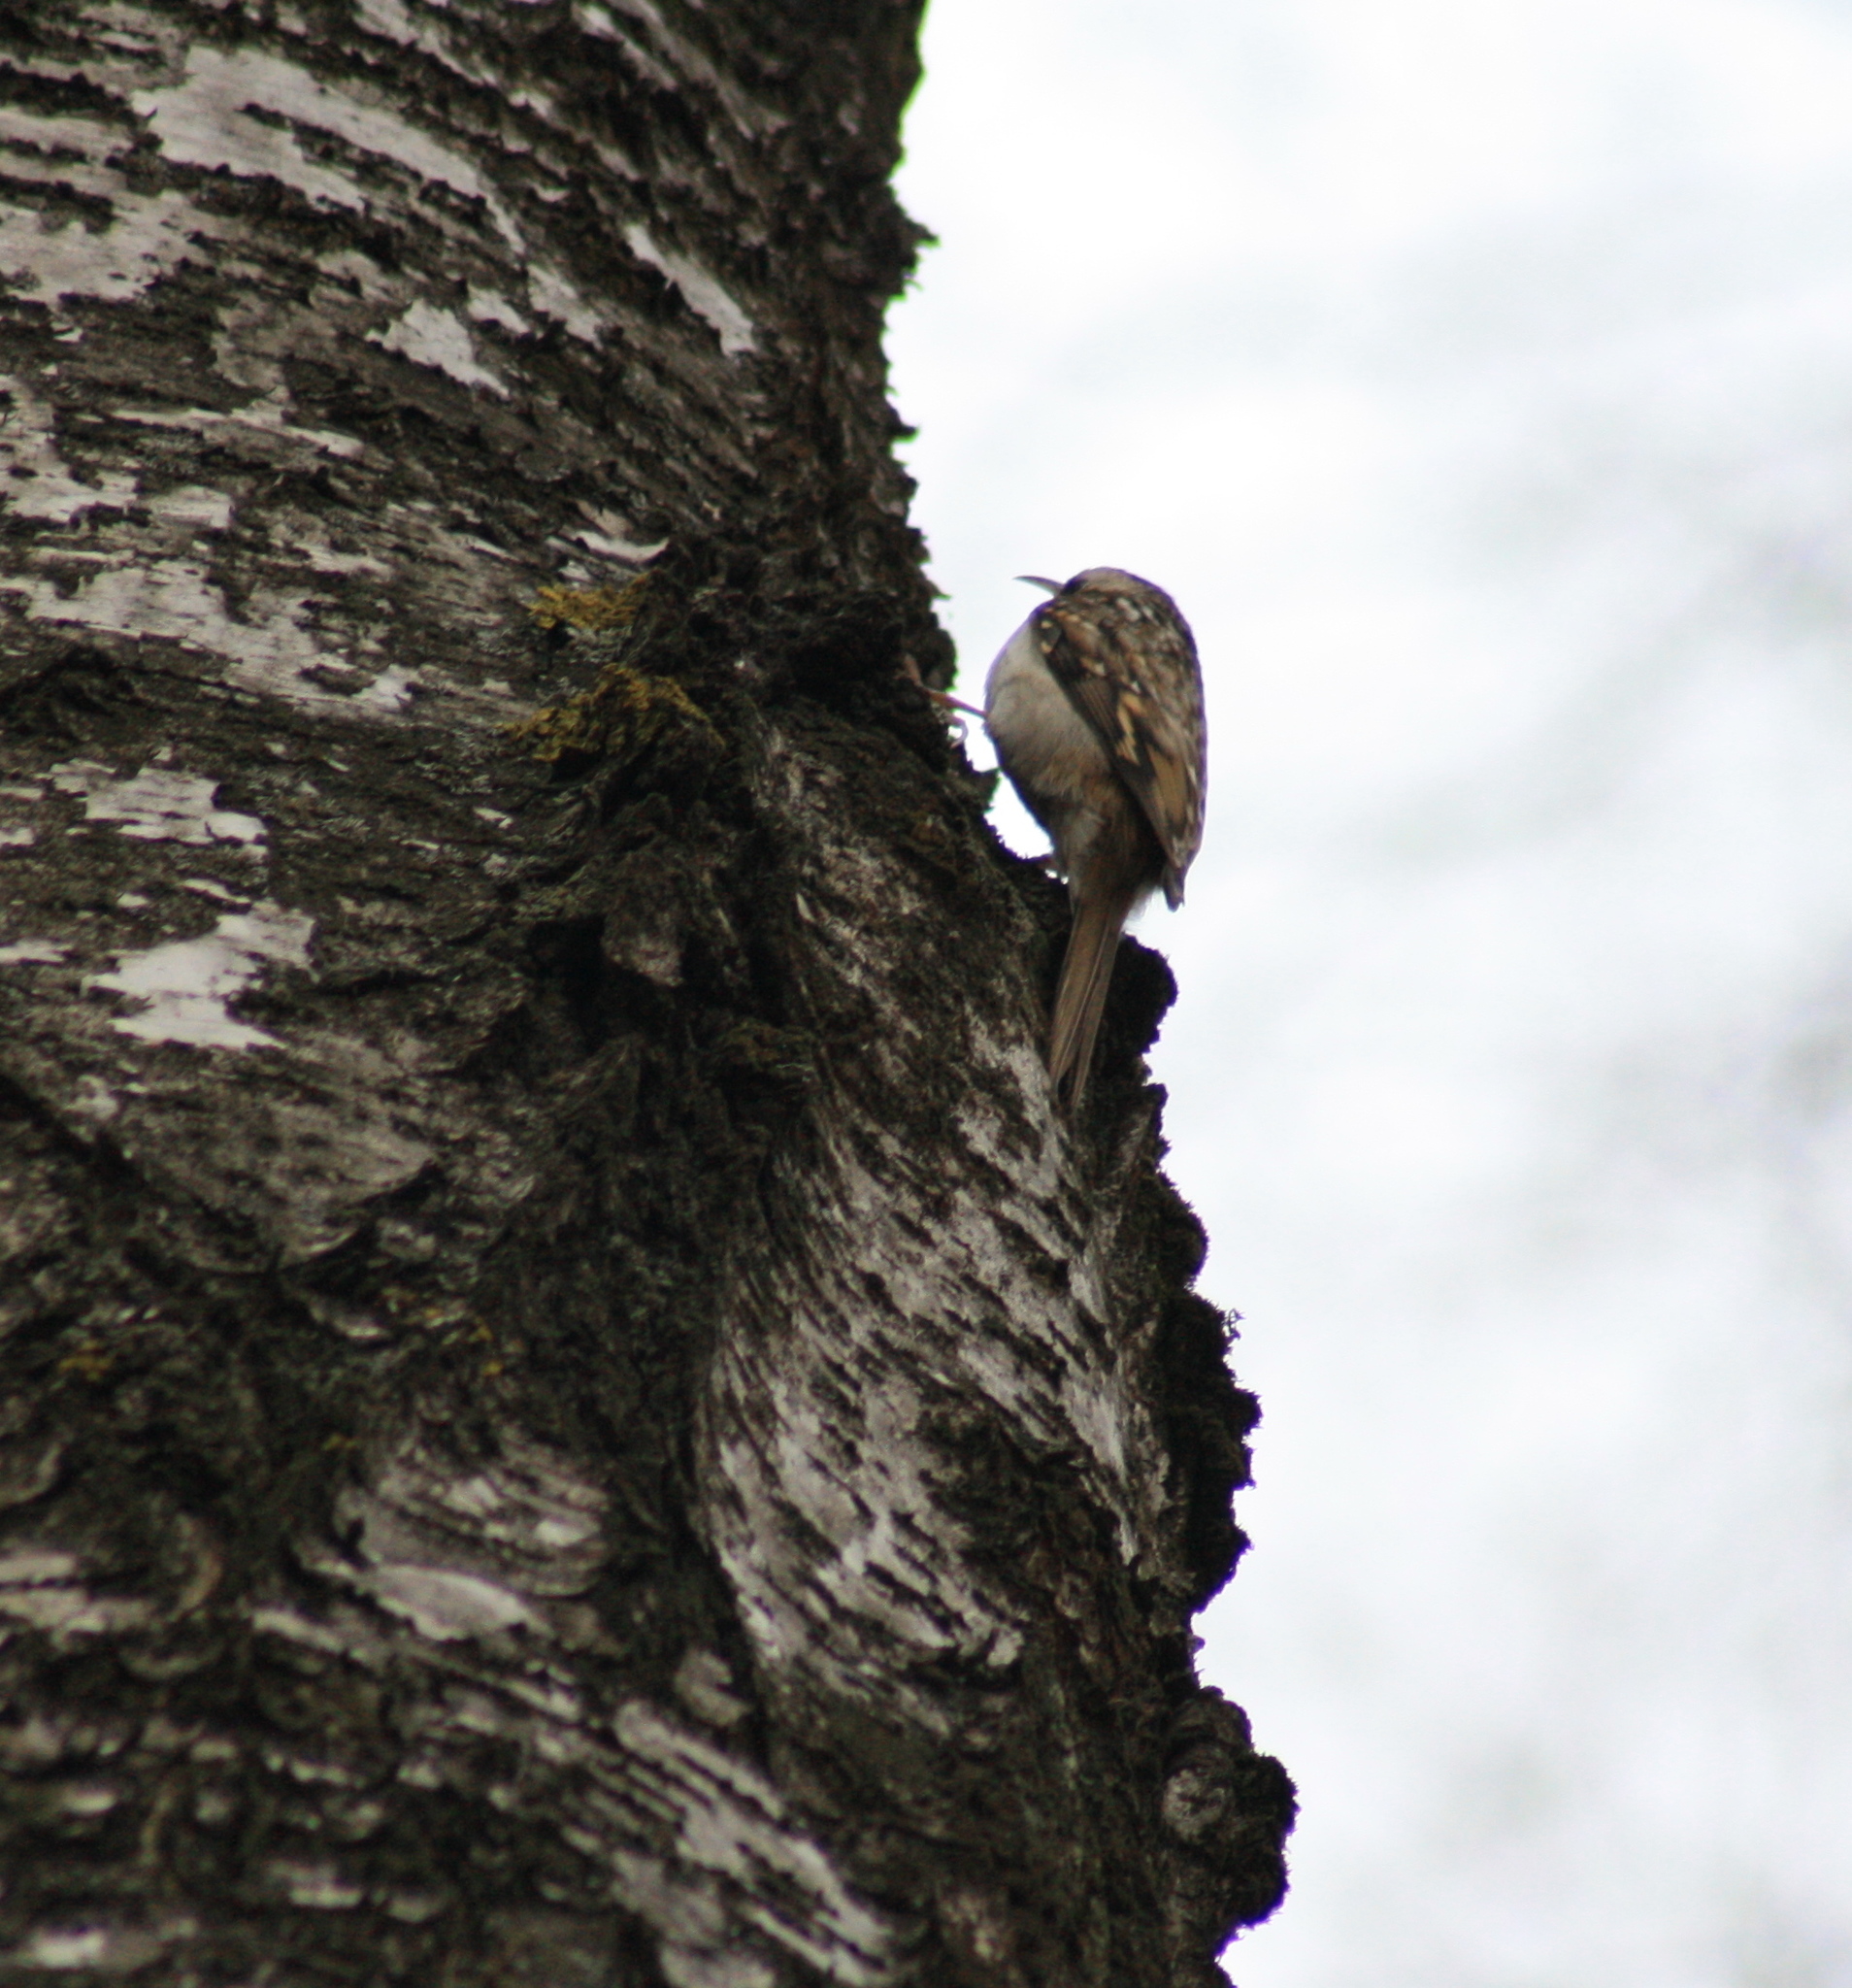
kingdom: Animalia
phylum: Chordata
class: Aves
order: Passeriformes
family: Certhiidae
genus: Certhia
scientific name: Certhia familiaris
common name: Eurasian treecreeper
